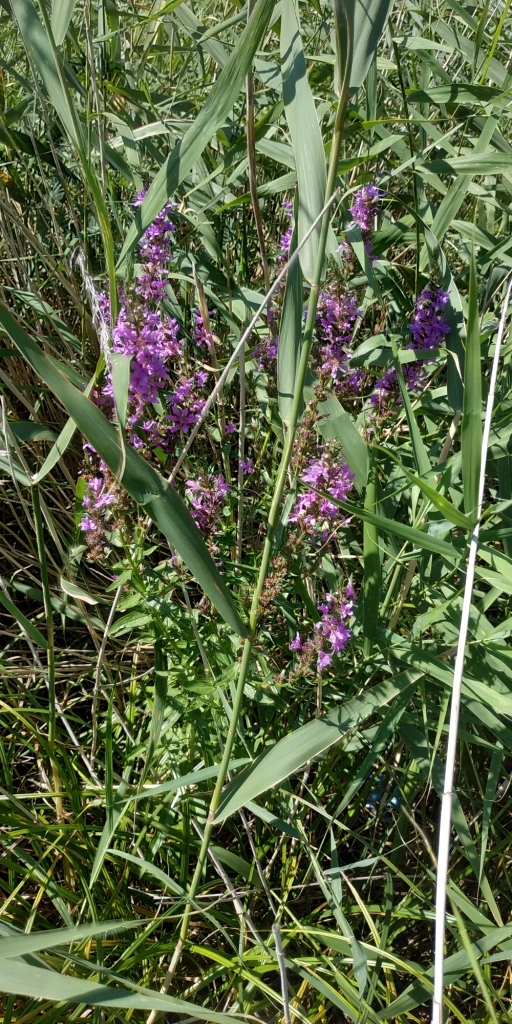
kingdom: Plantae
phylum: Tracheophyta
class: Magnoliopsida
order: Myrtales
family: Lythraceae
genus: Lythrum
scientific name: Lythrum virgatum
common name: European wand loosestrife
